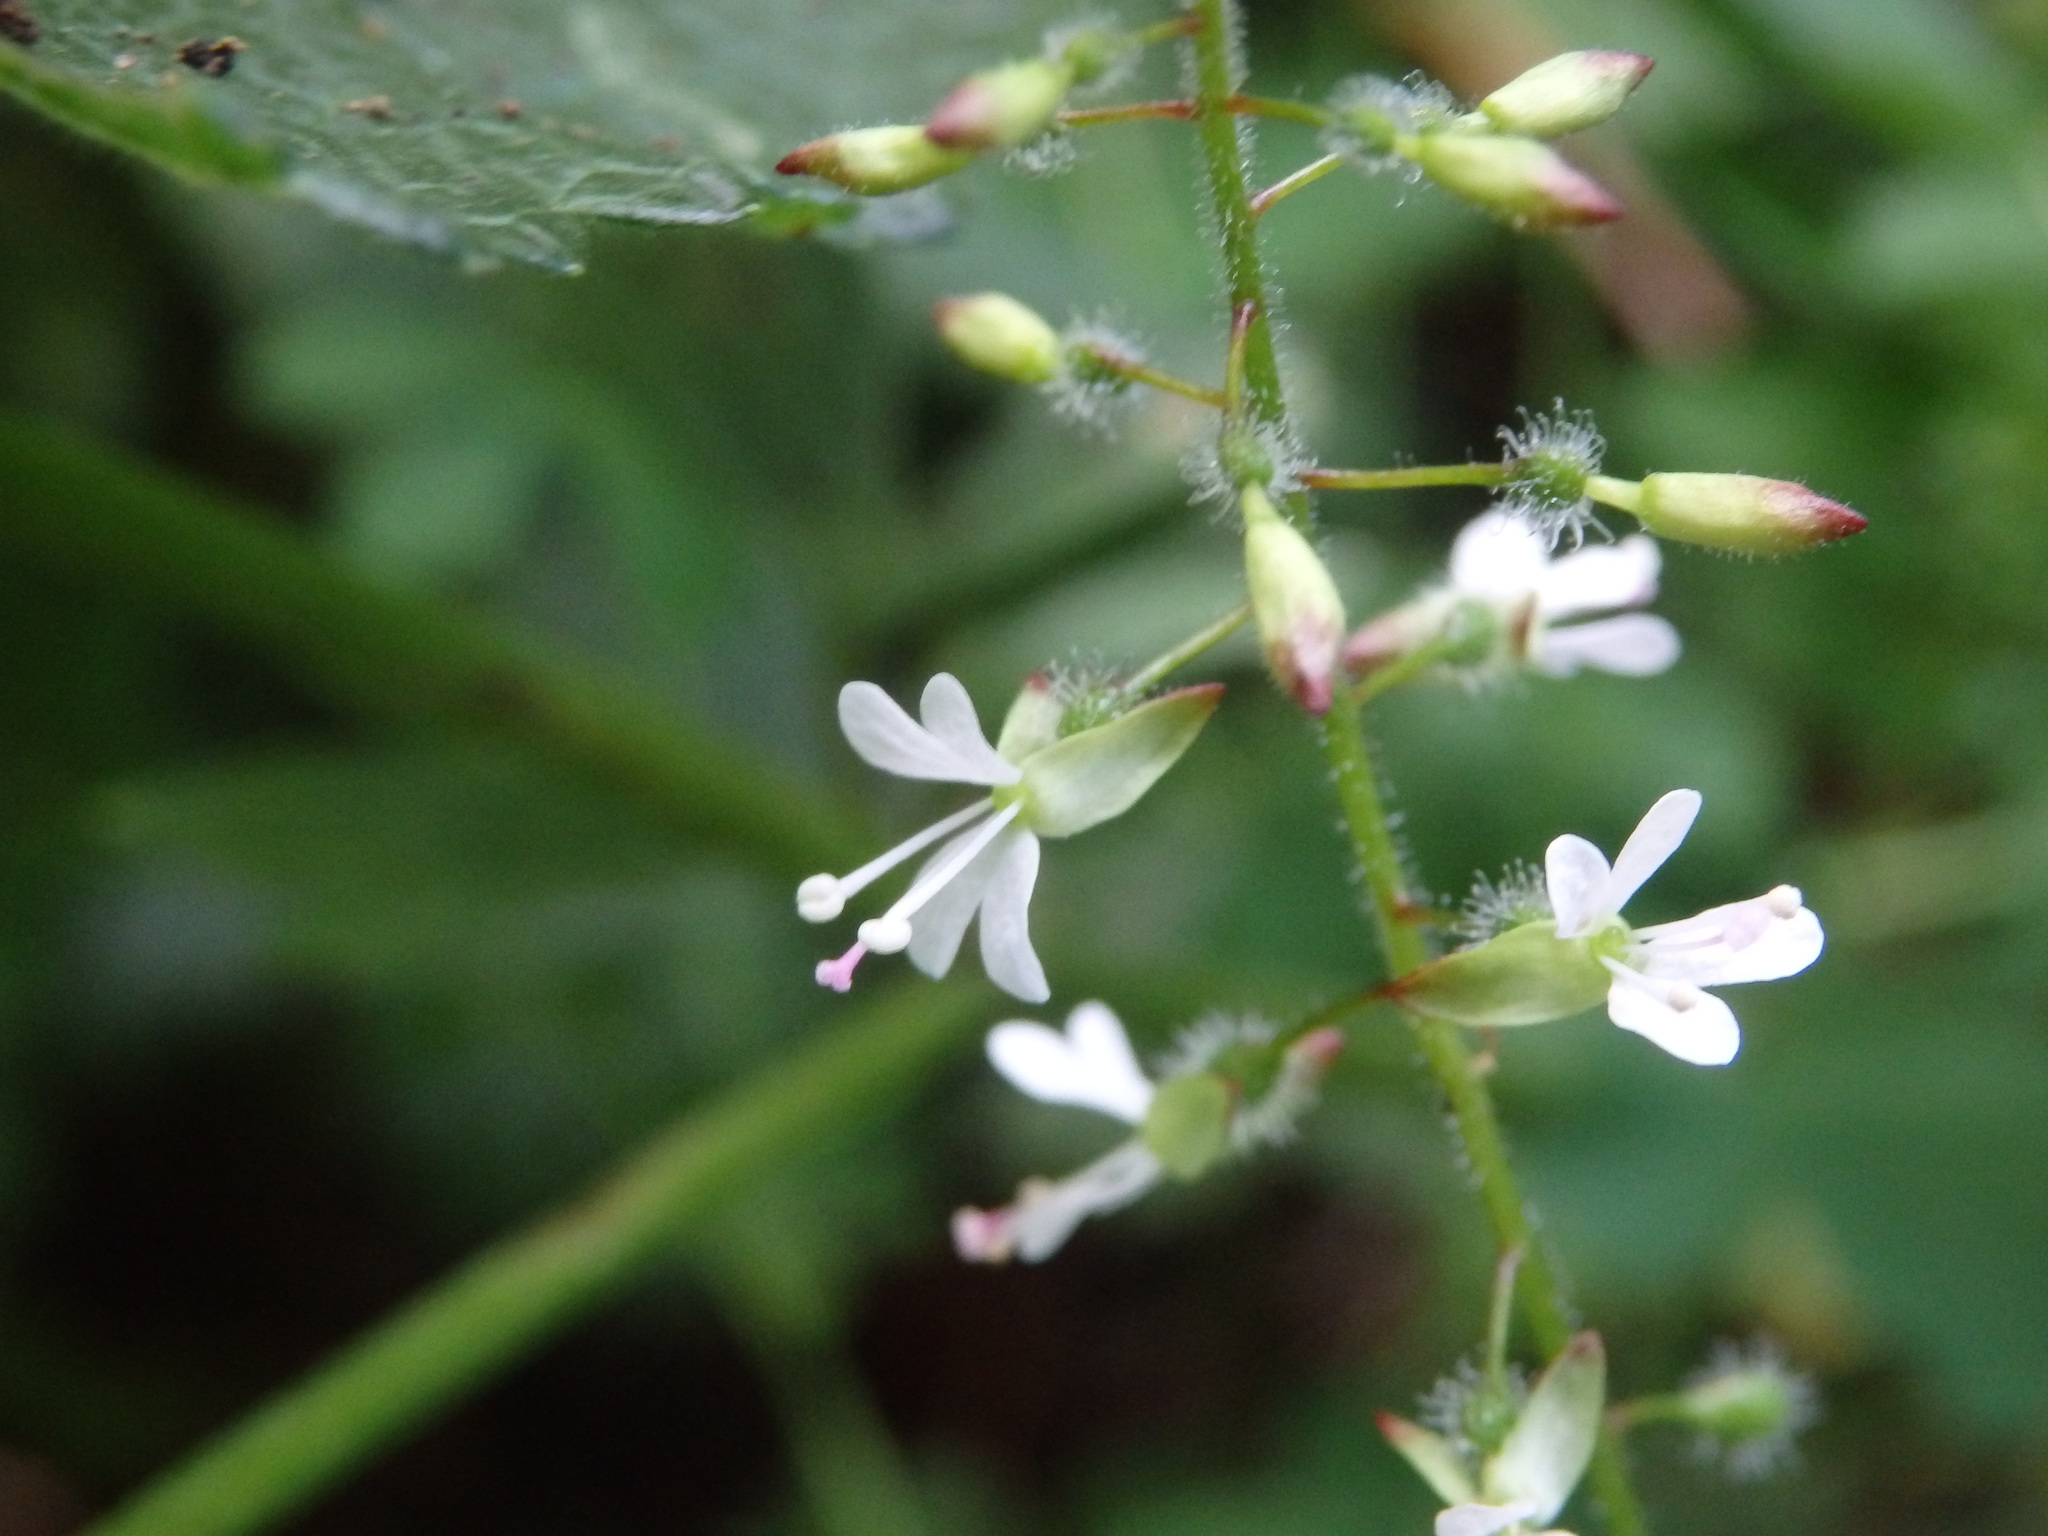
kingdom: Plantae
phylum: Tracheophyta
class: Magnoliopsida
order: Myrtales
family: Onagraceae
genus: Circaea
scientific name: Circaea lutetiana
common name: Enchanter's-nightshade
